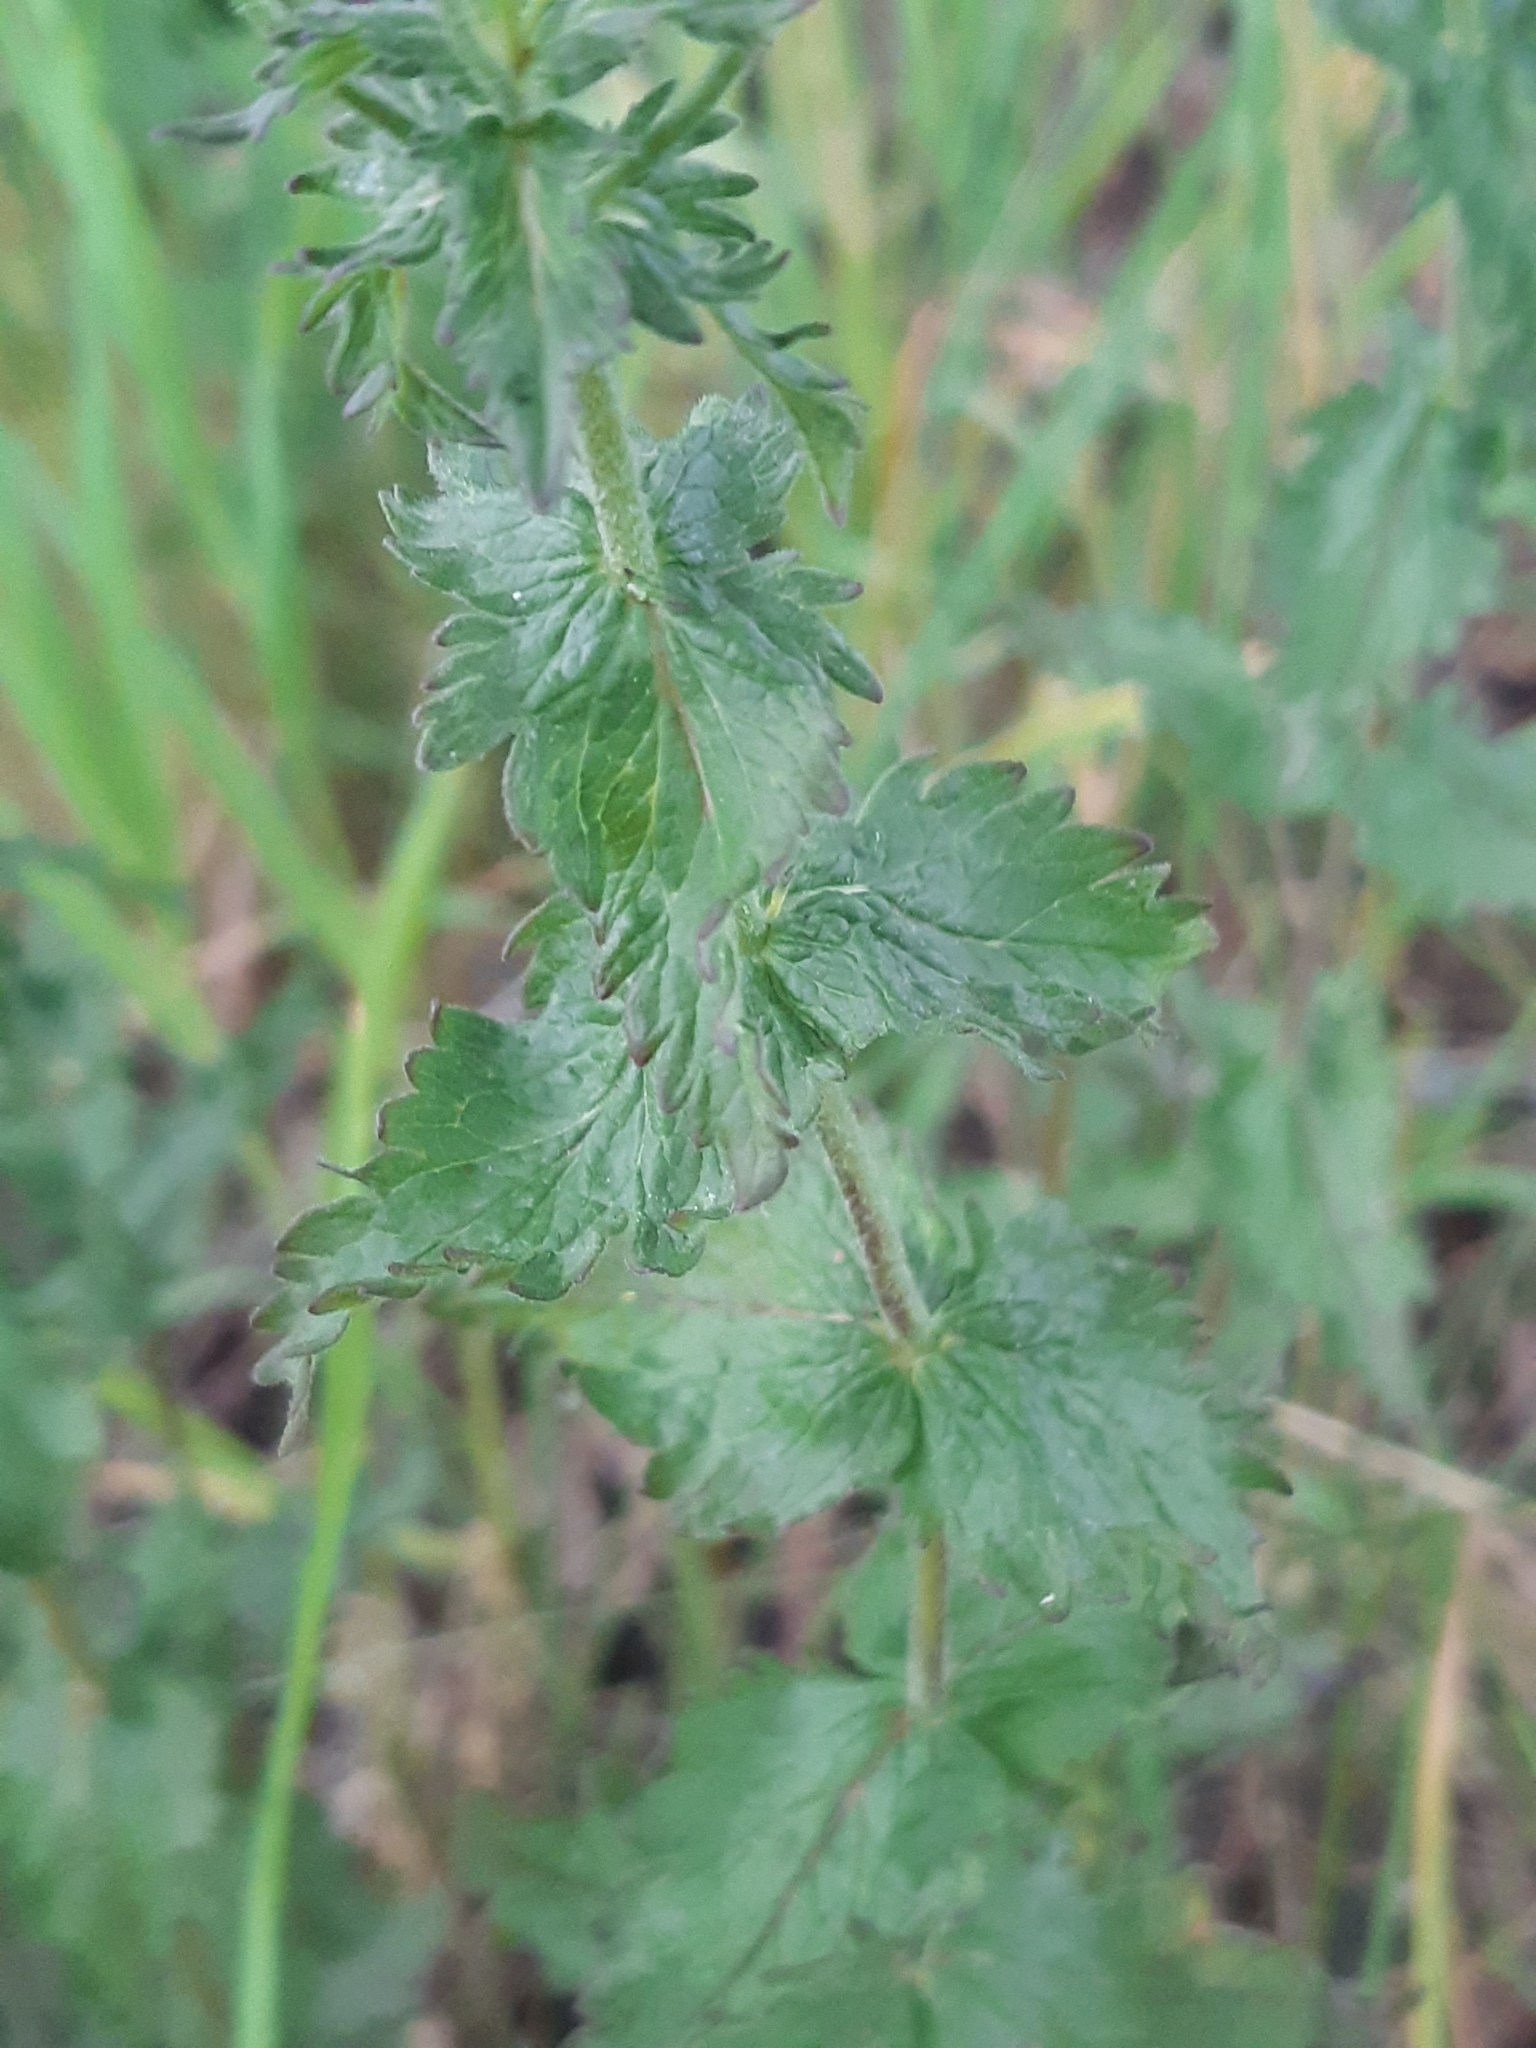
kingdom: Plantae
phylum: Tracheophyta
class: Magnoliopsida
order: Lamiales
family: Plantaginaceae
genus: Veronica
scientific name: Veronica teucrium
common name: Large speedwell
